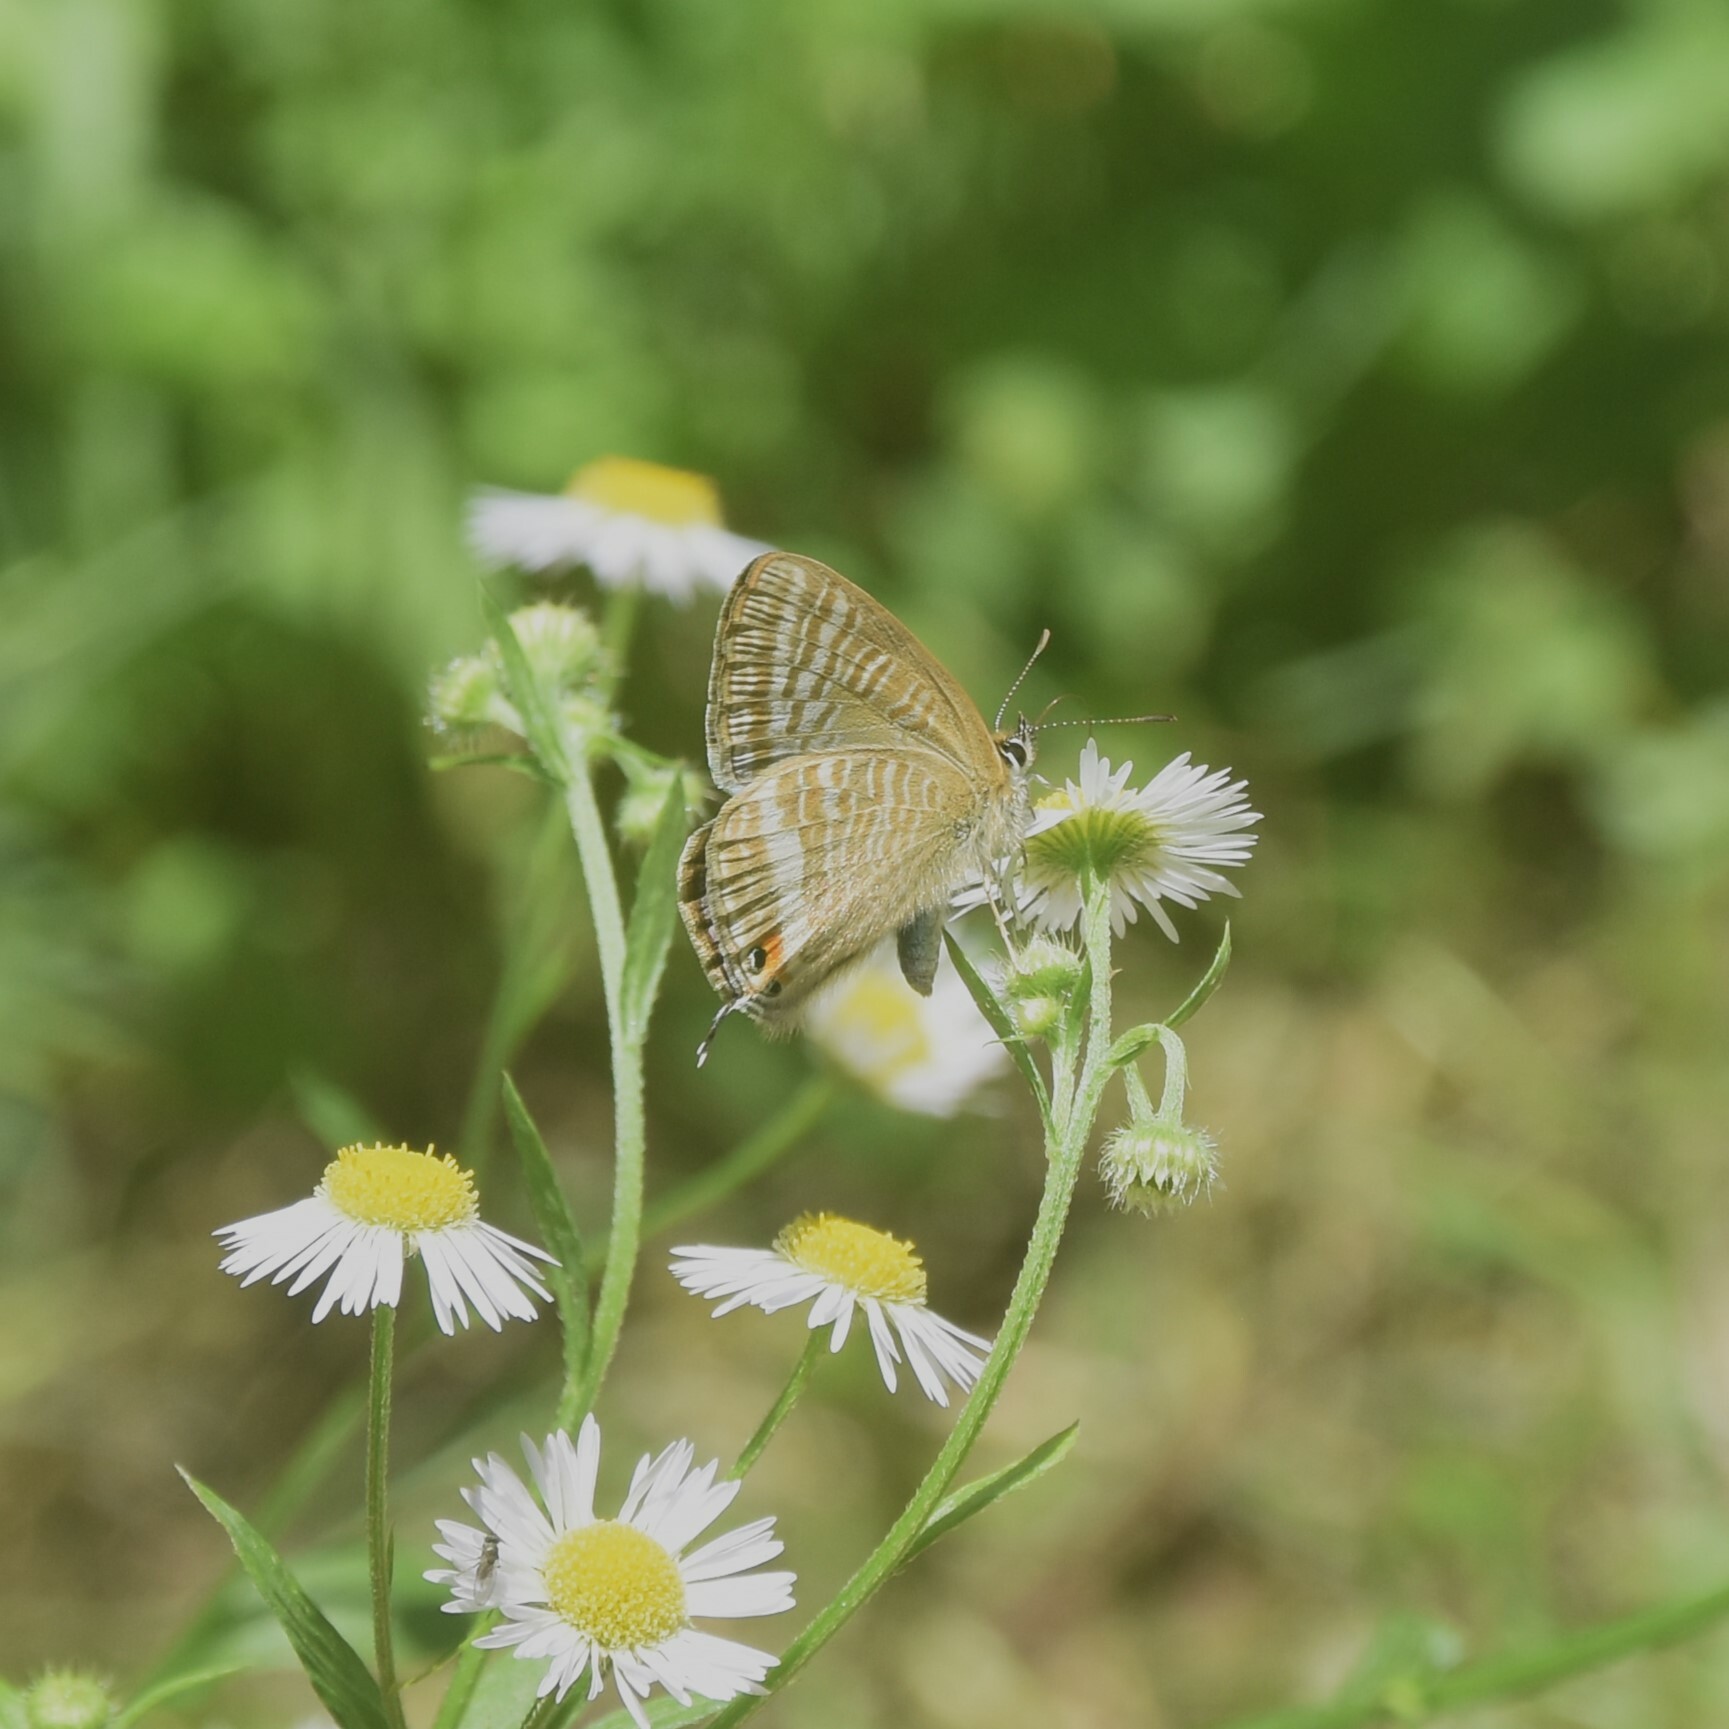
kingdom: Animalia
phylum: Arthropoda
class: Insecta
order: Lepidoptera
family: Lycaenidae
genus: Lampides
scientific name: Lampides boeticus
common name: Long-tailed blue
